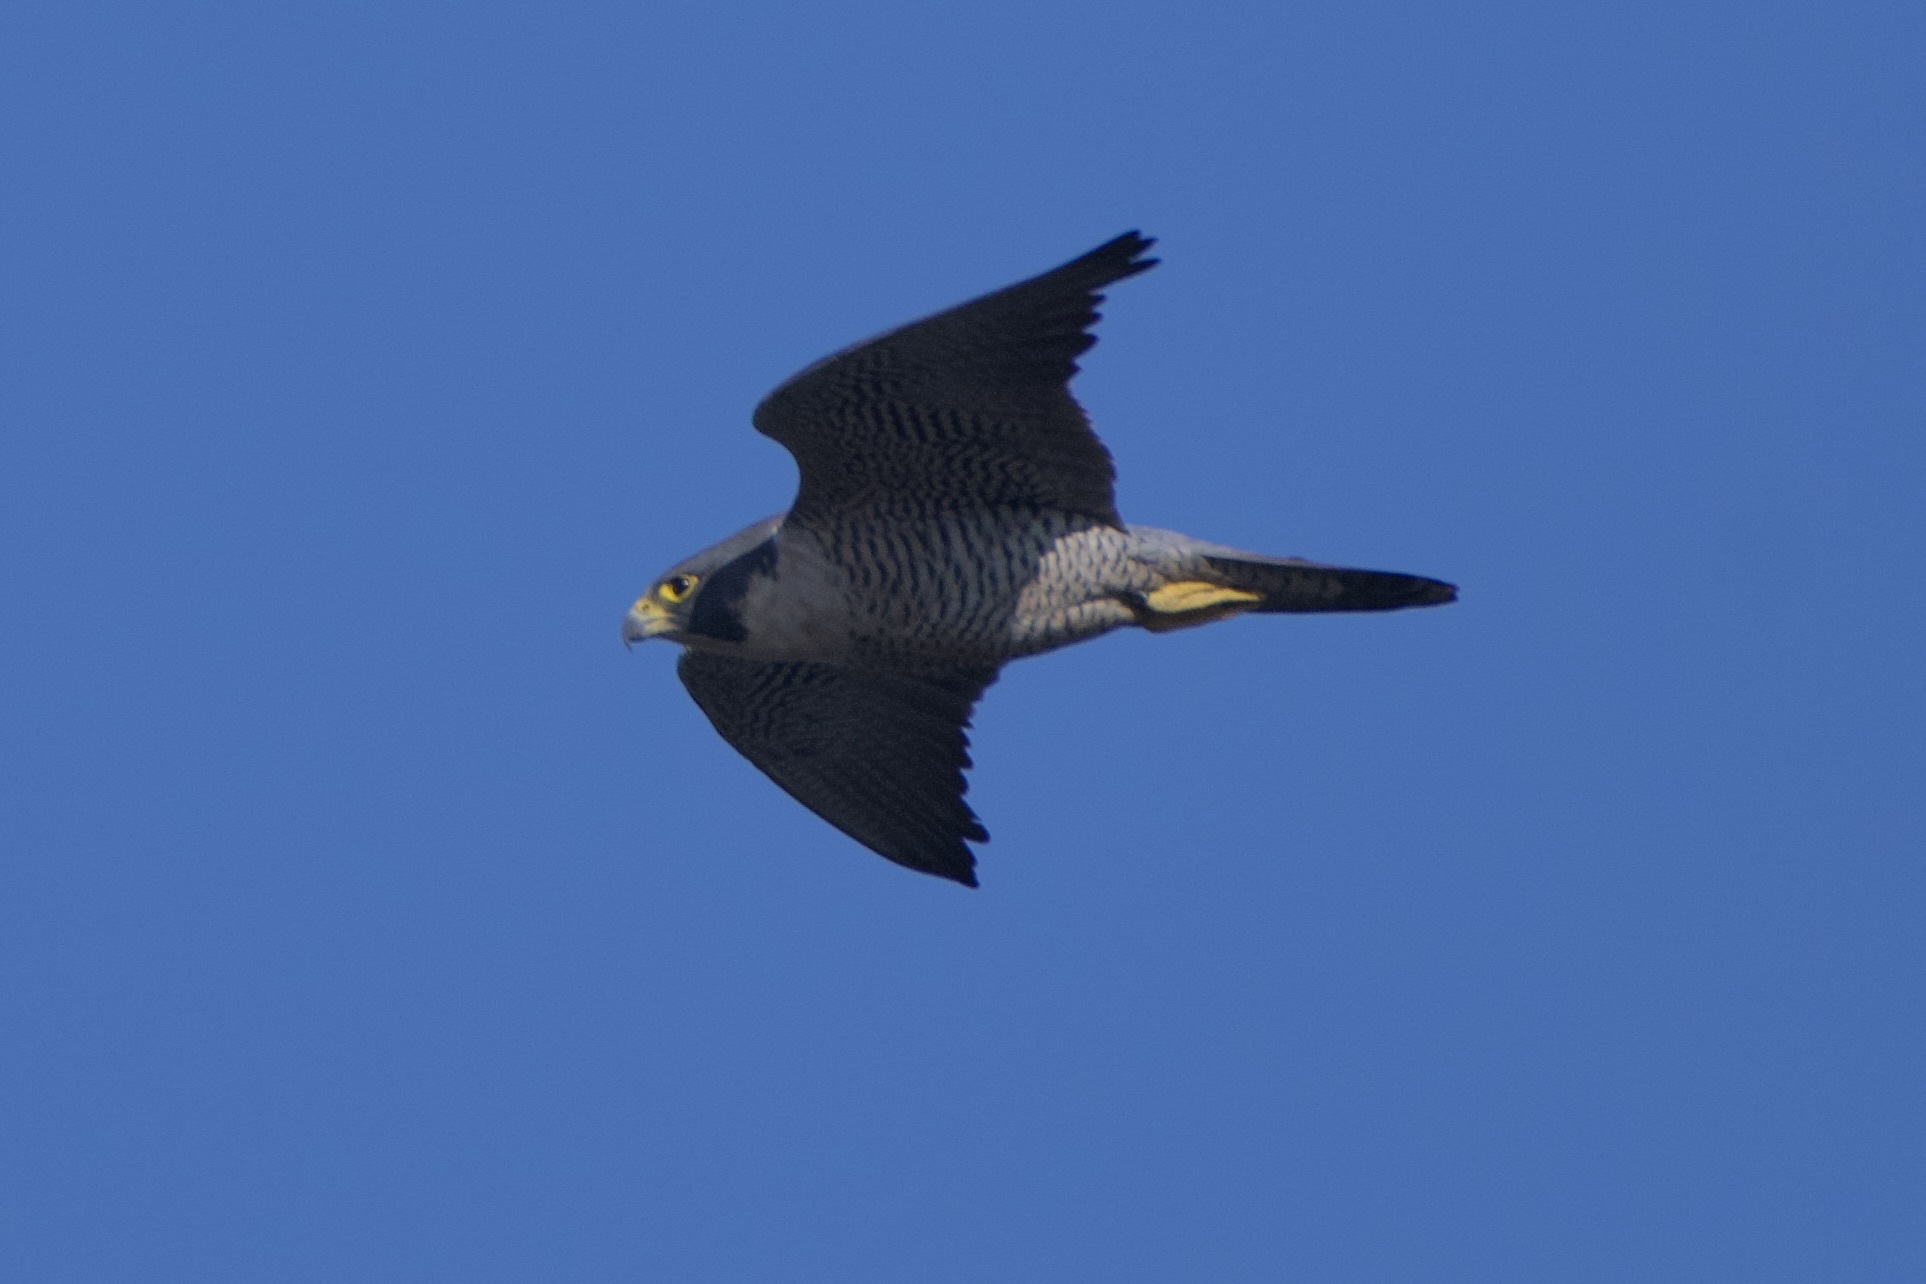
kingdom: Animalia
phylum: Chordata
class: Aves
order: Falconiformes
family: Falconidae
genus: Falco
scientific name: Falco peregrinus
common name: Peregrine falcon
